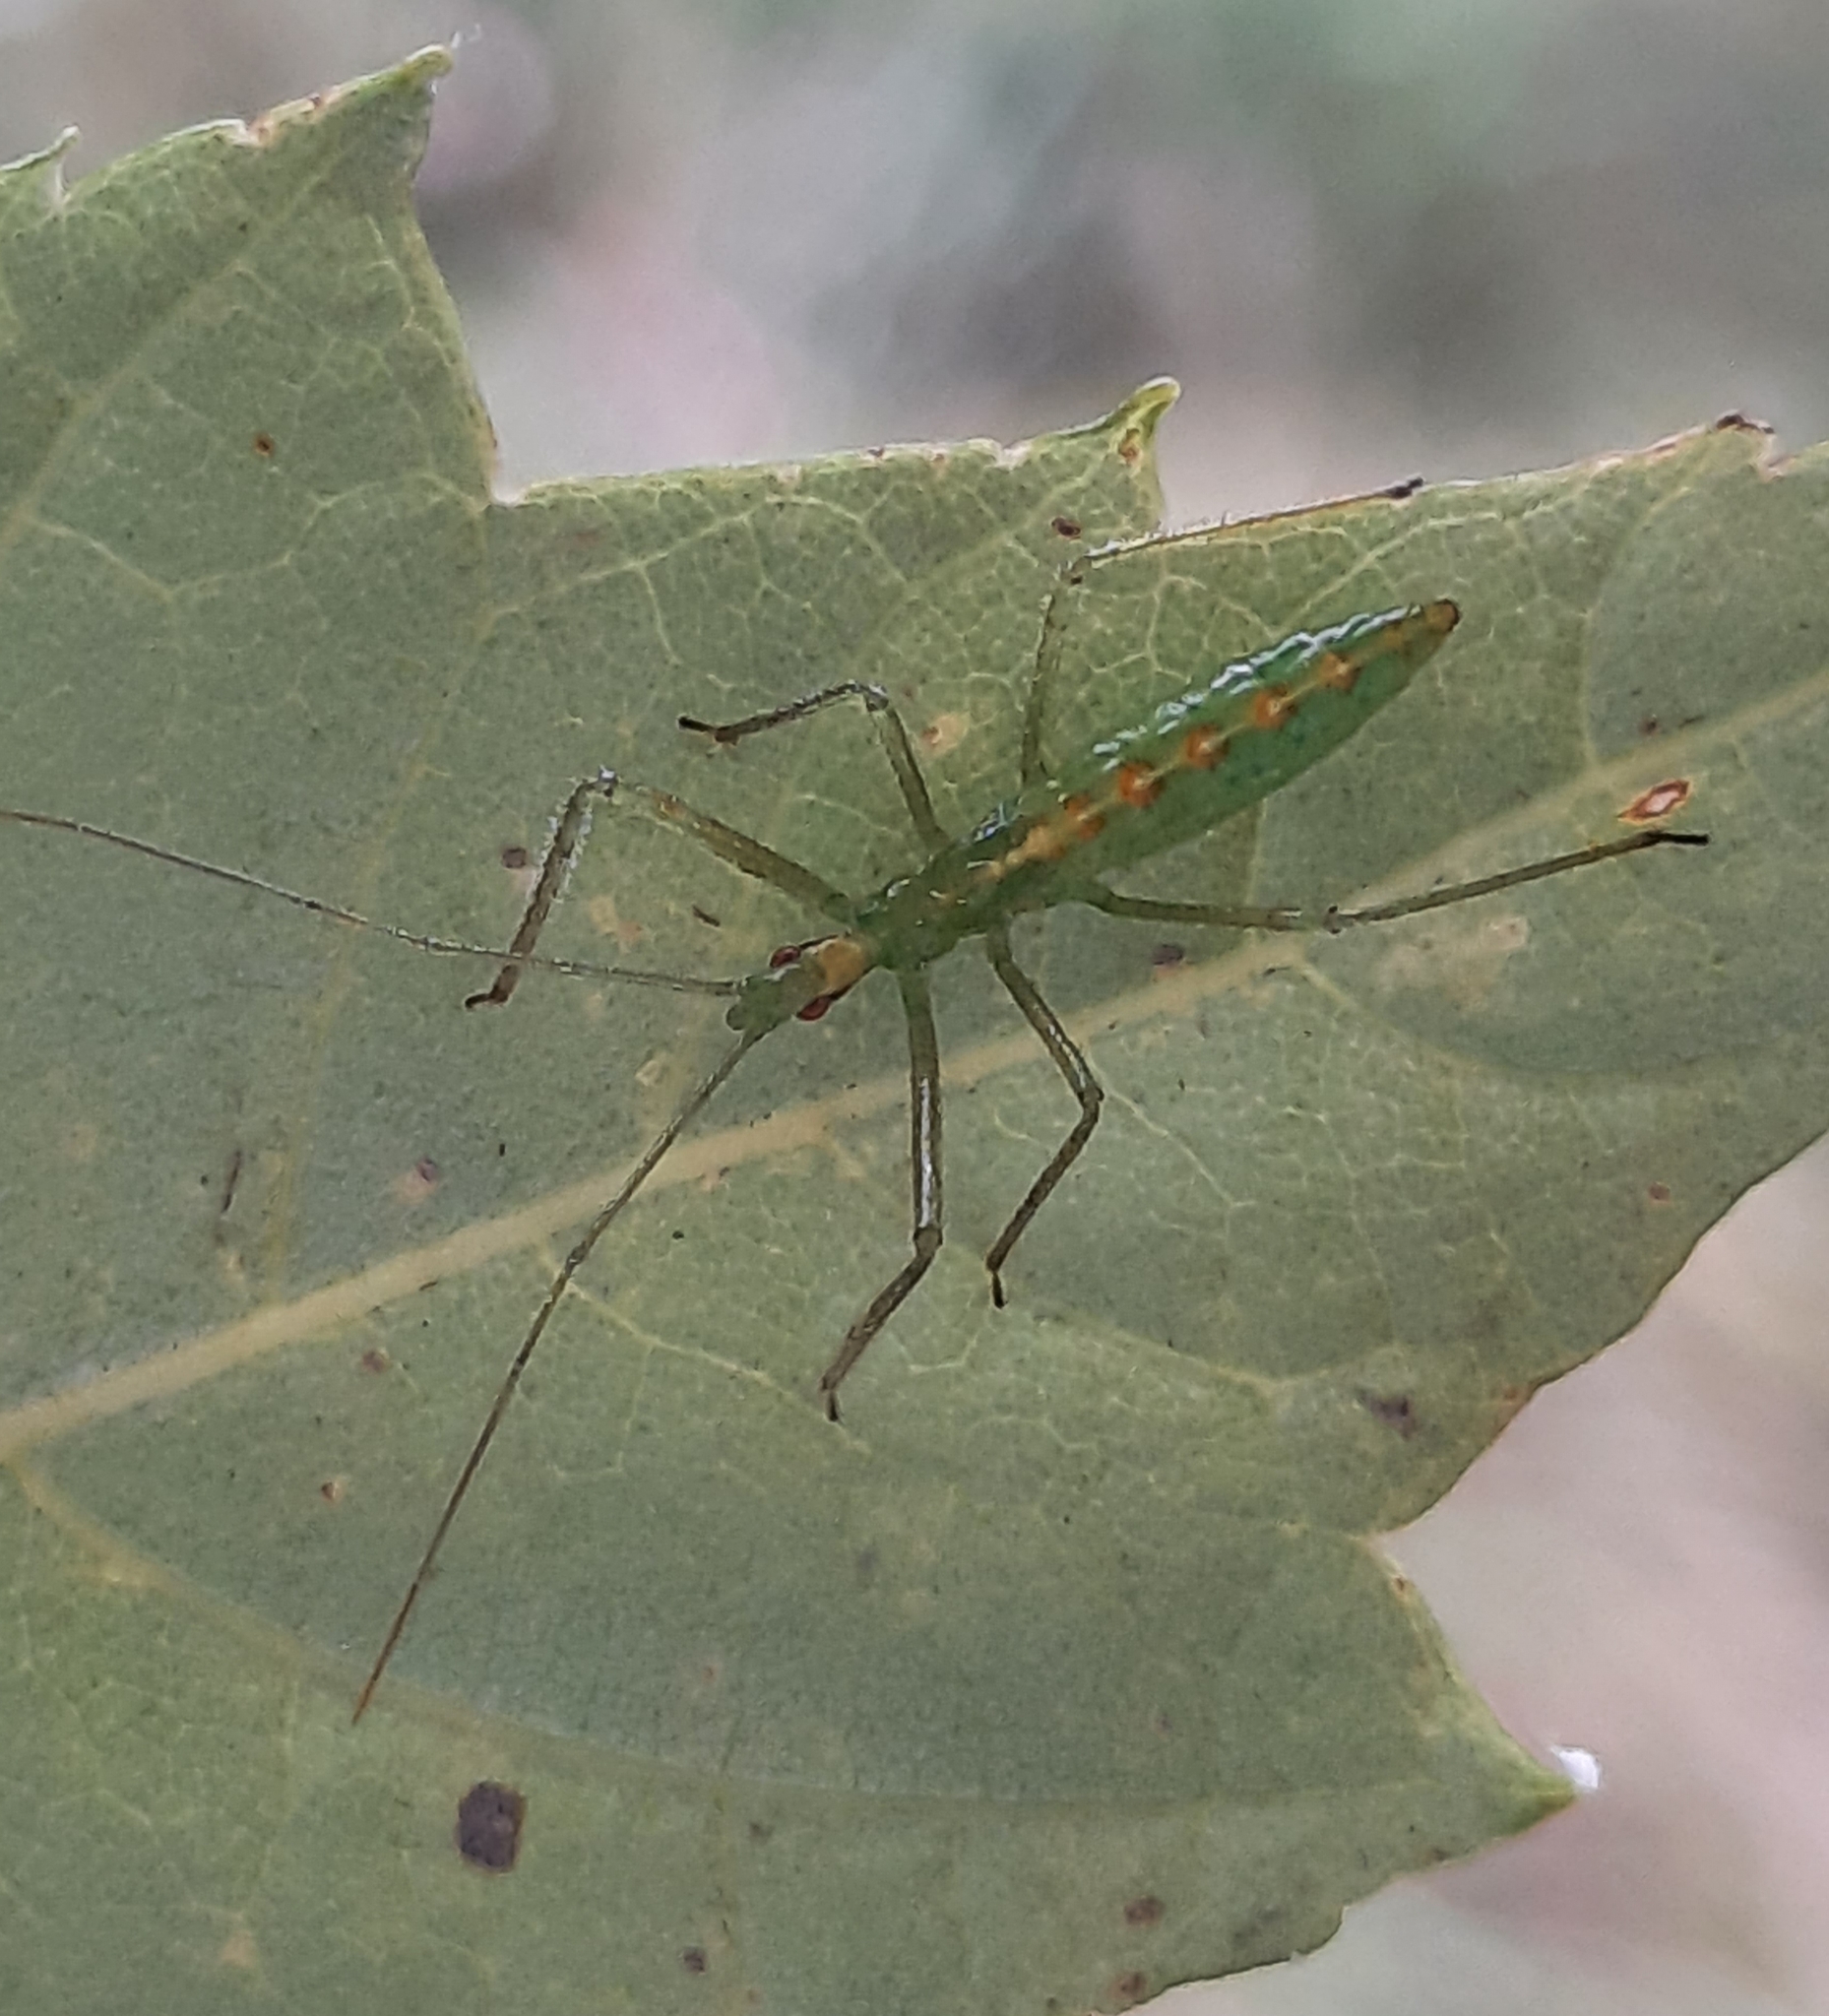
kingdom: Animalia
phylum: Arthropoda
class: Insecta
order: Hemiptera
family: Reduviidae
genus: Zelus
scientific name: Zelus luridus
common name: Pale green assassin bug
